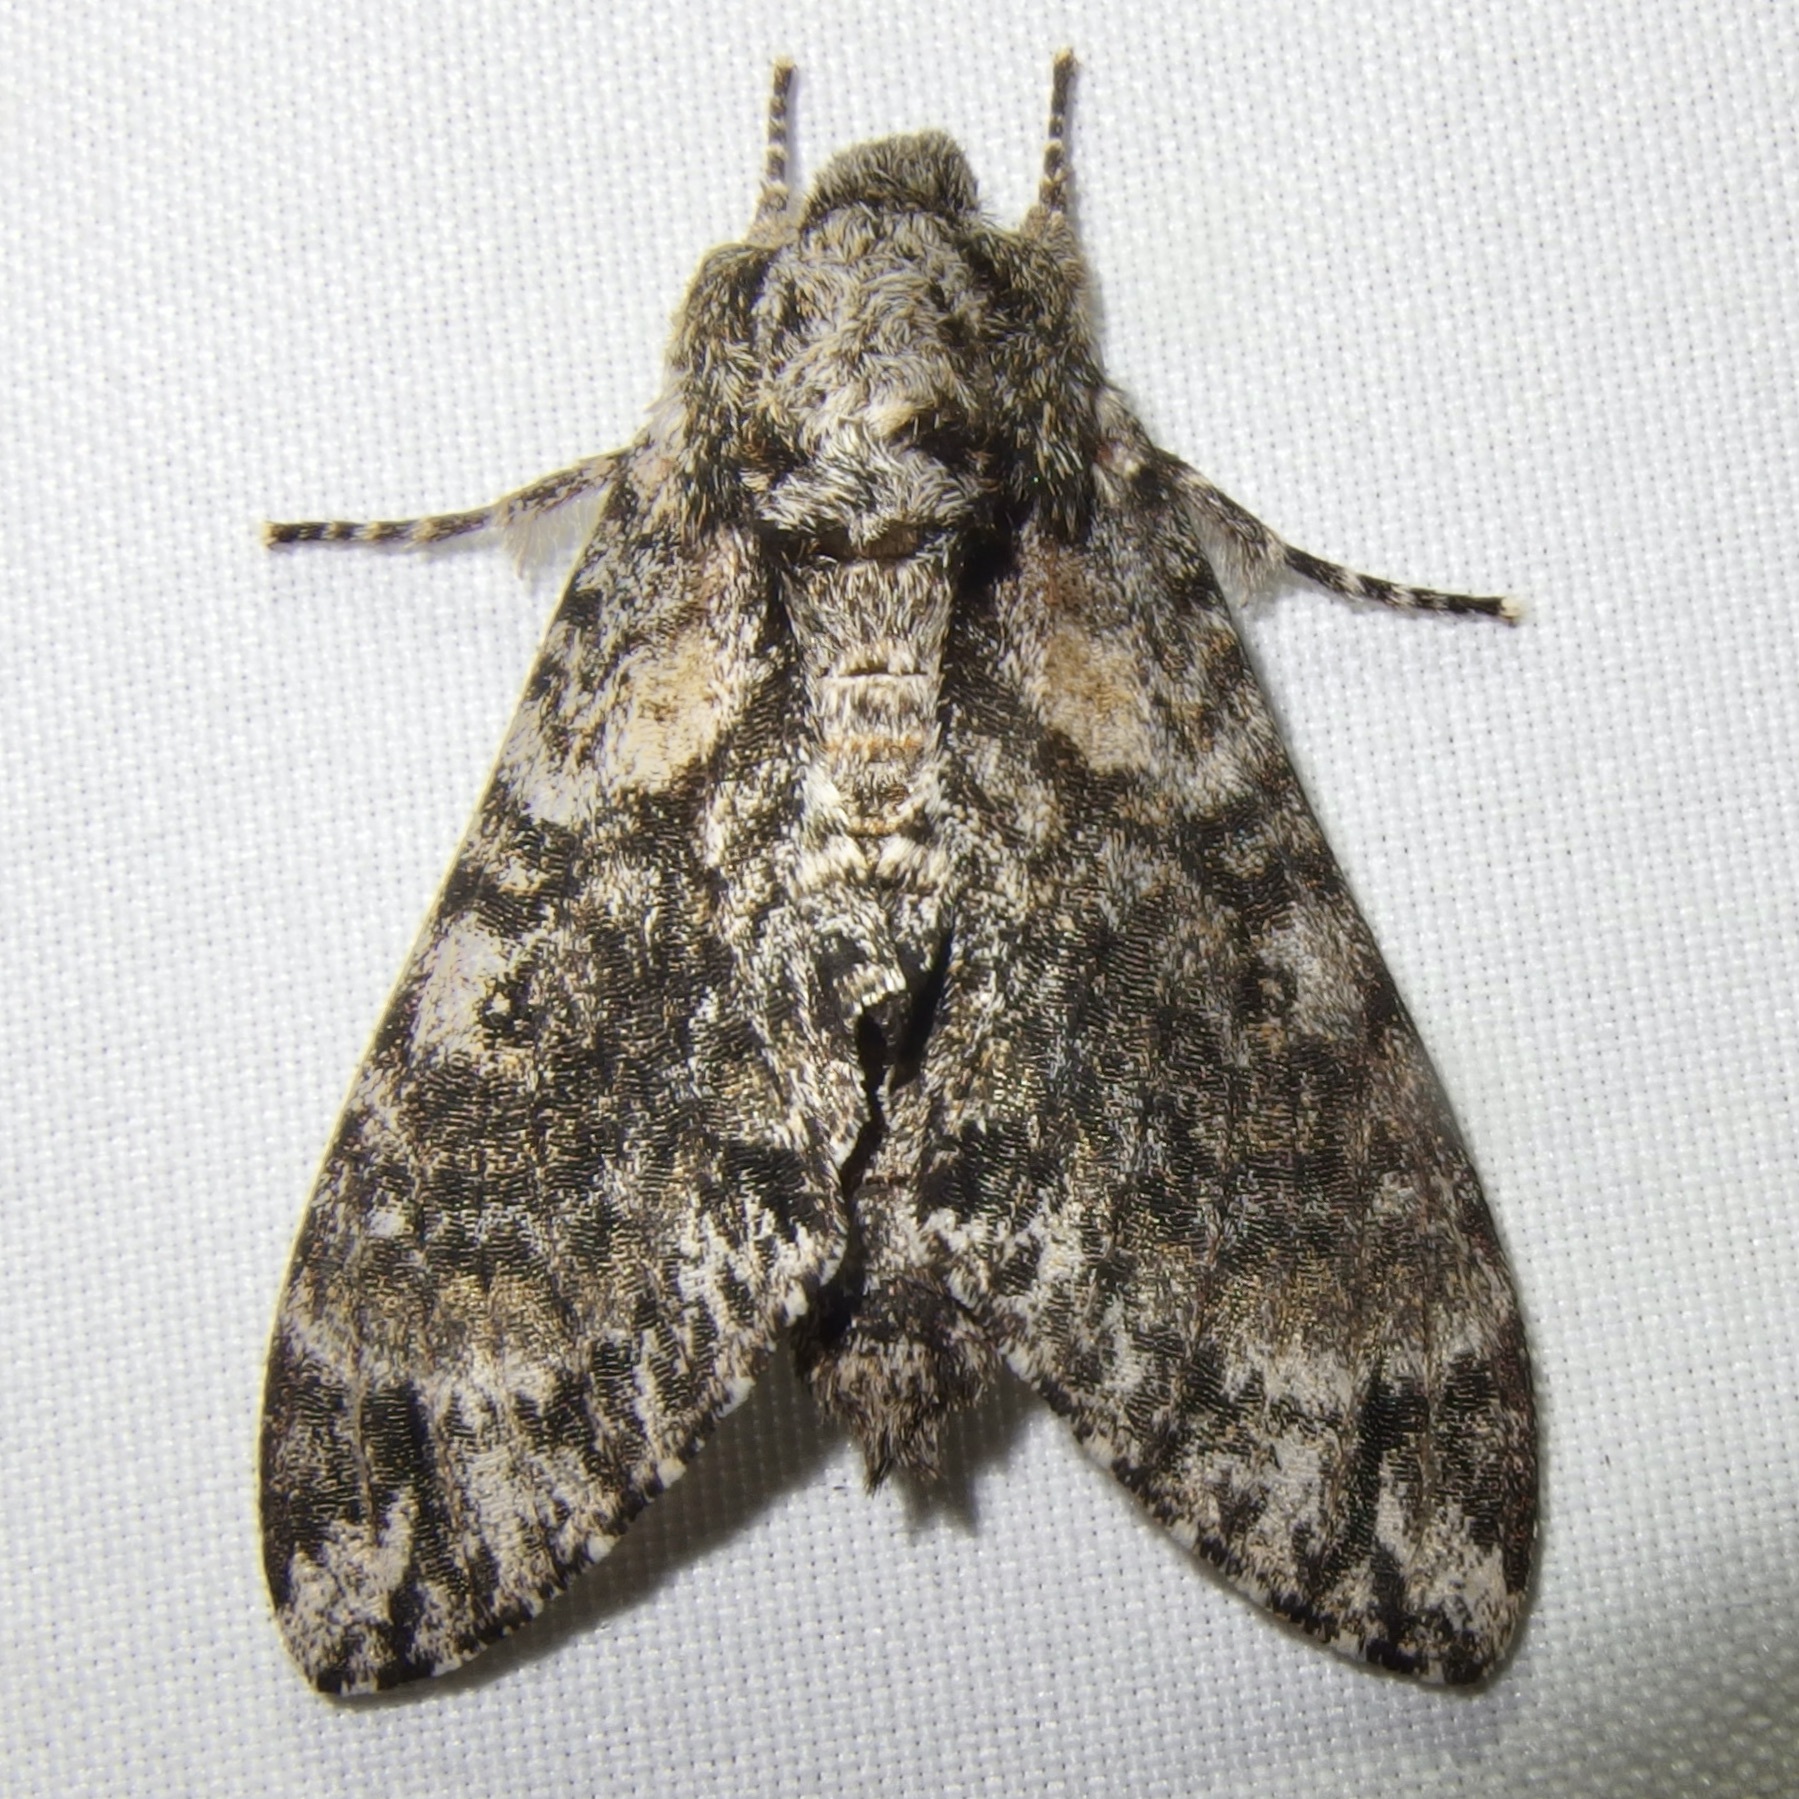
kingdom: Animalia
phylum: Arthropoda
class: Insecta
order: Lepidoptera
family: Sphingidae
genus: Dolbogene
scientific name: Dolbogene hartwegii
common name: Hartweg's sphinx
